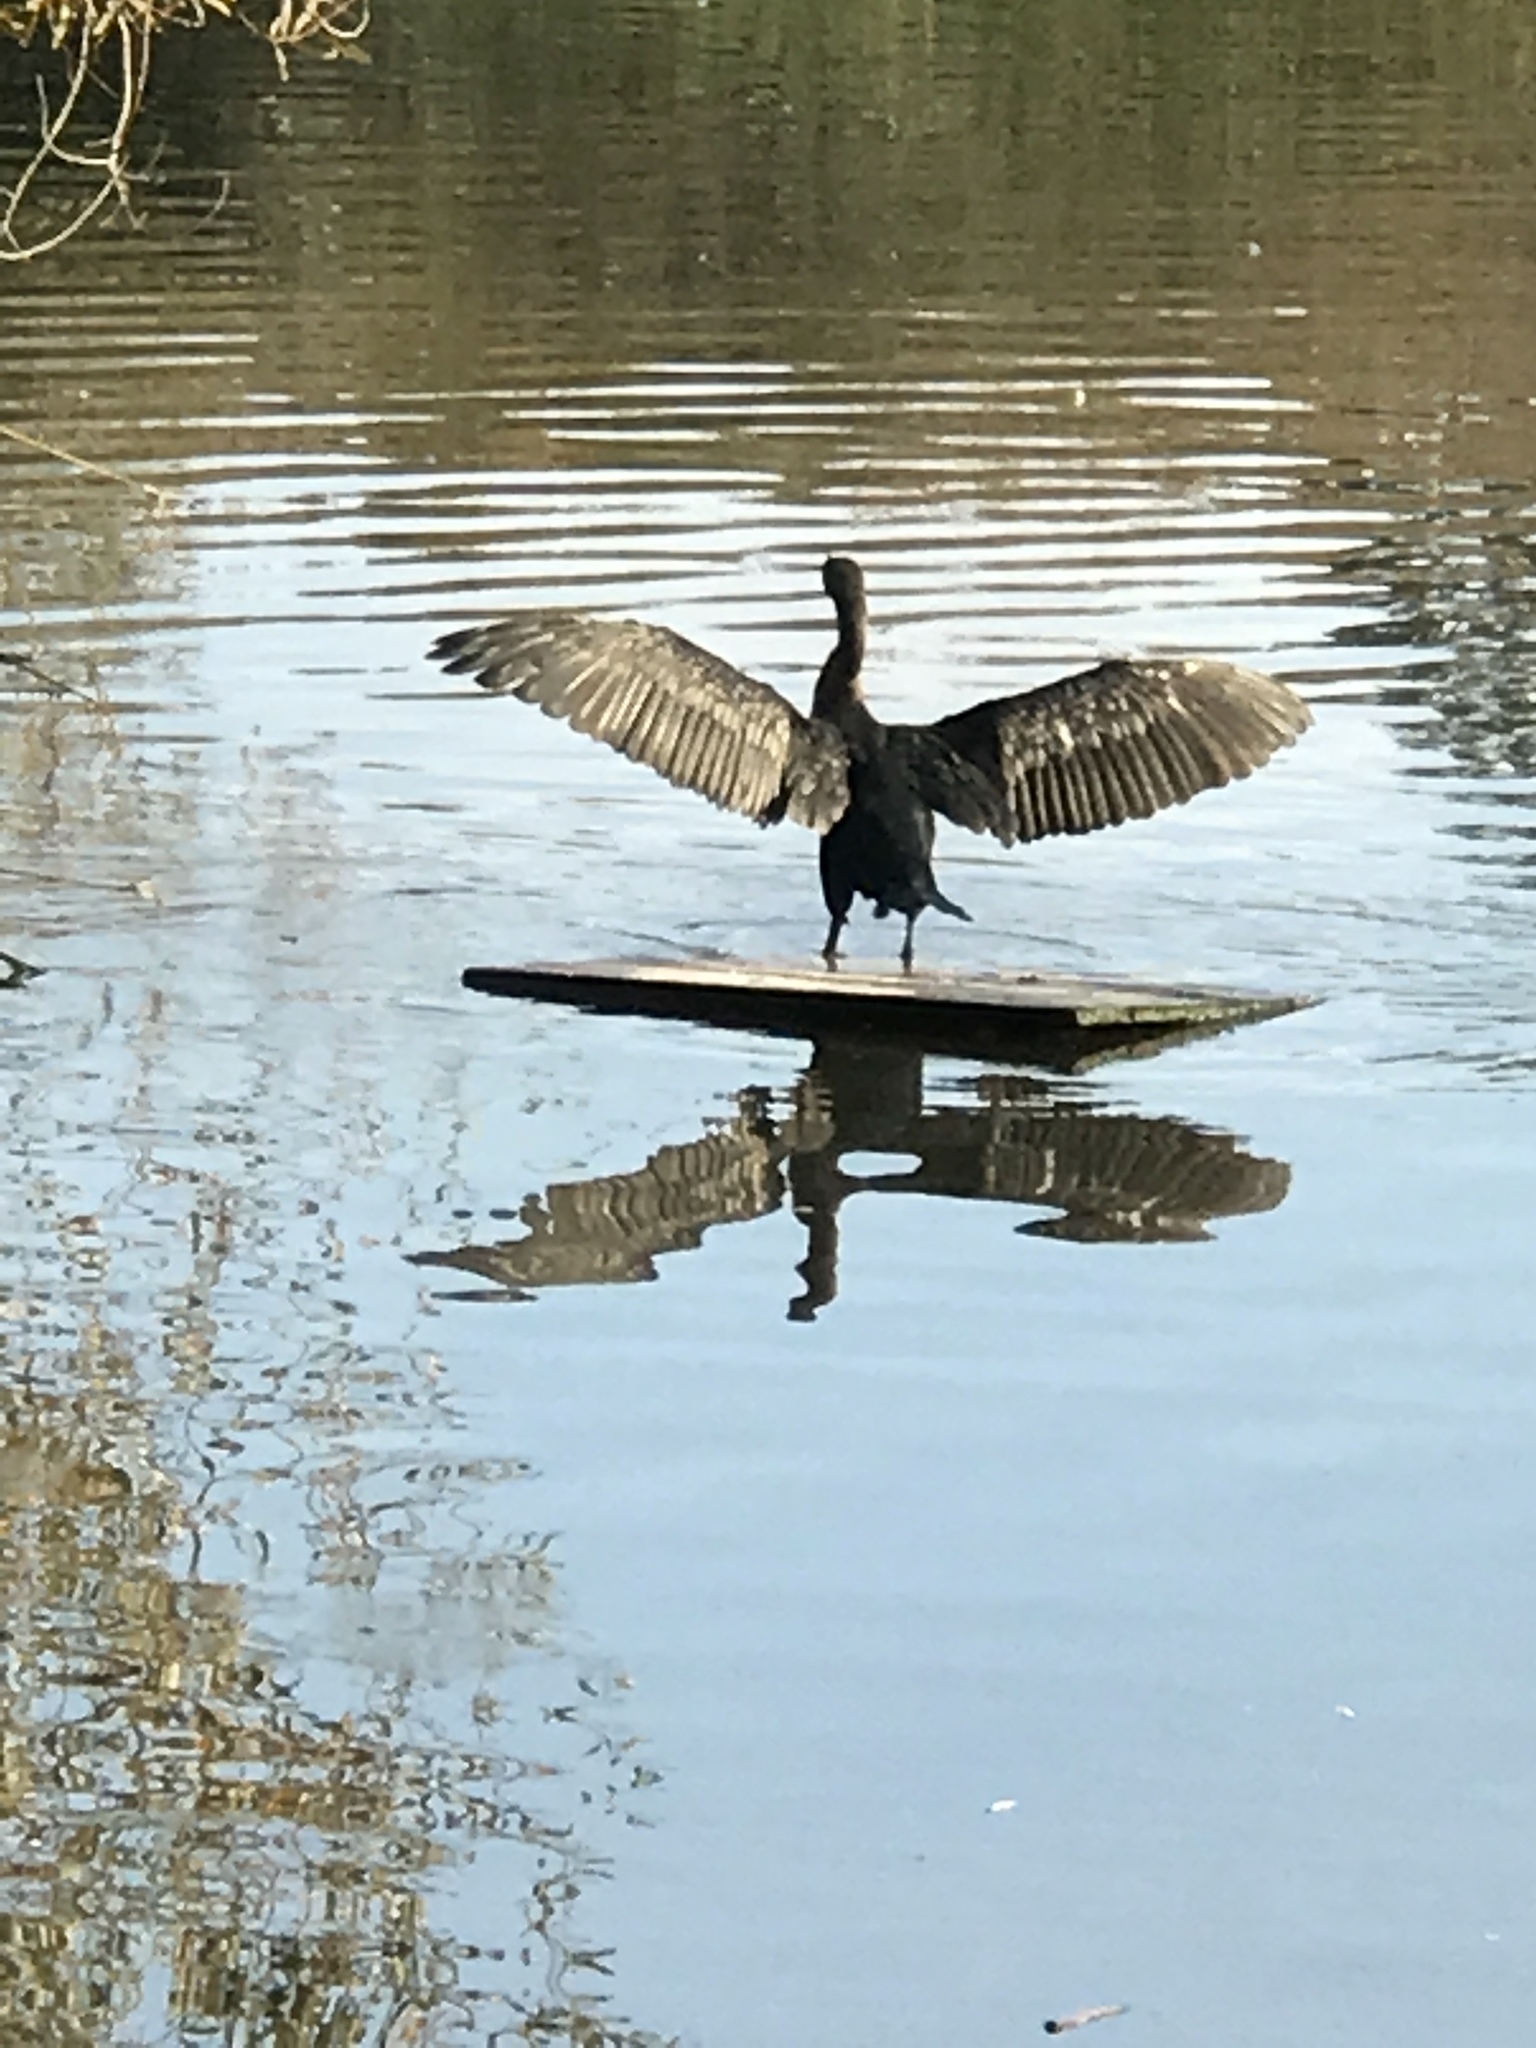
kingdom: Animalia
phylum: Chordata
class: Aves
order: Suliformes
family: Phalacrocoracidae
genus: Phalacrocorax
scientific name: Phalacrocorax auritus
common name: Double-crested cormorant
